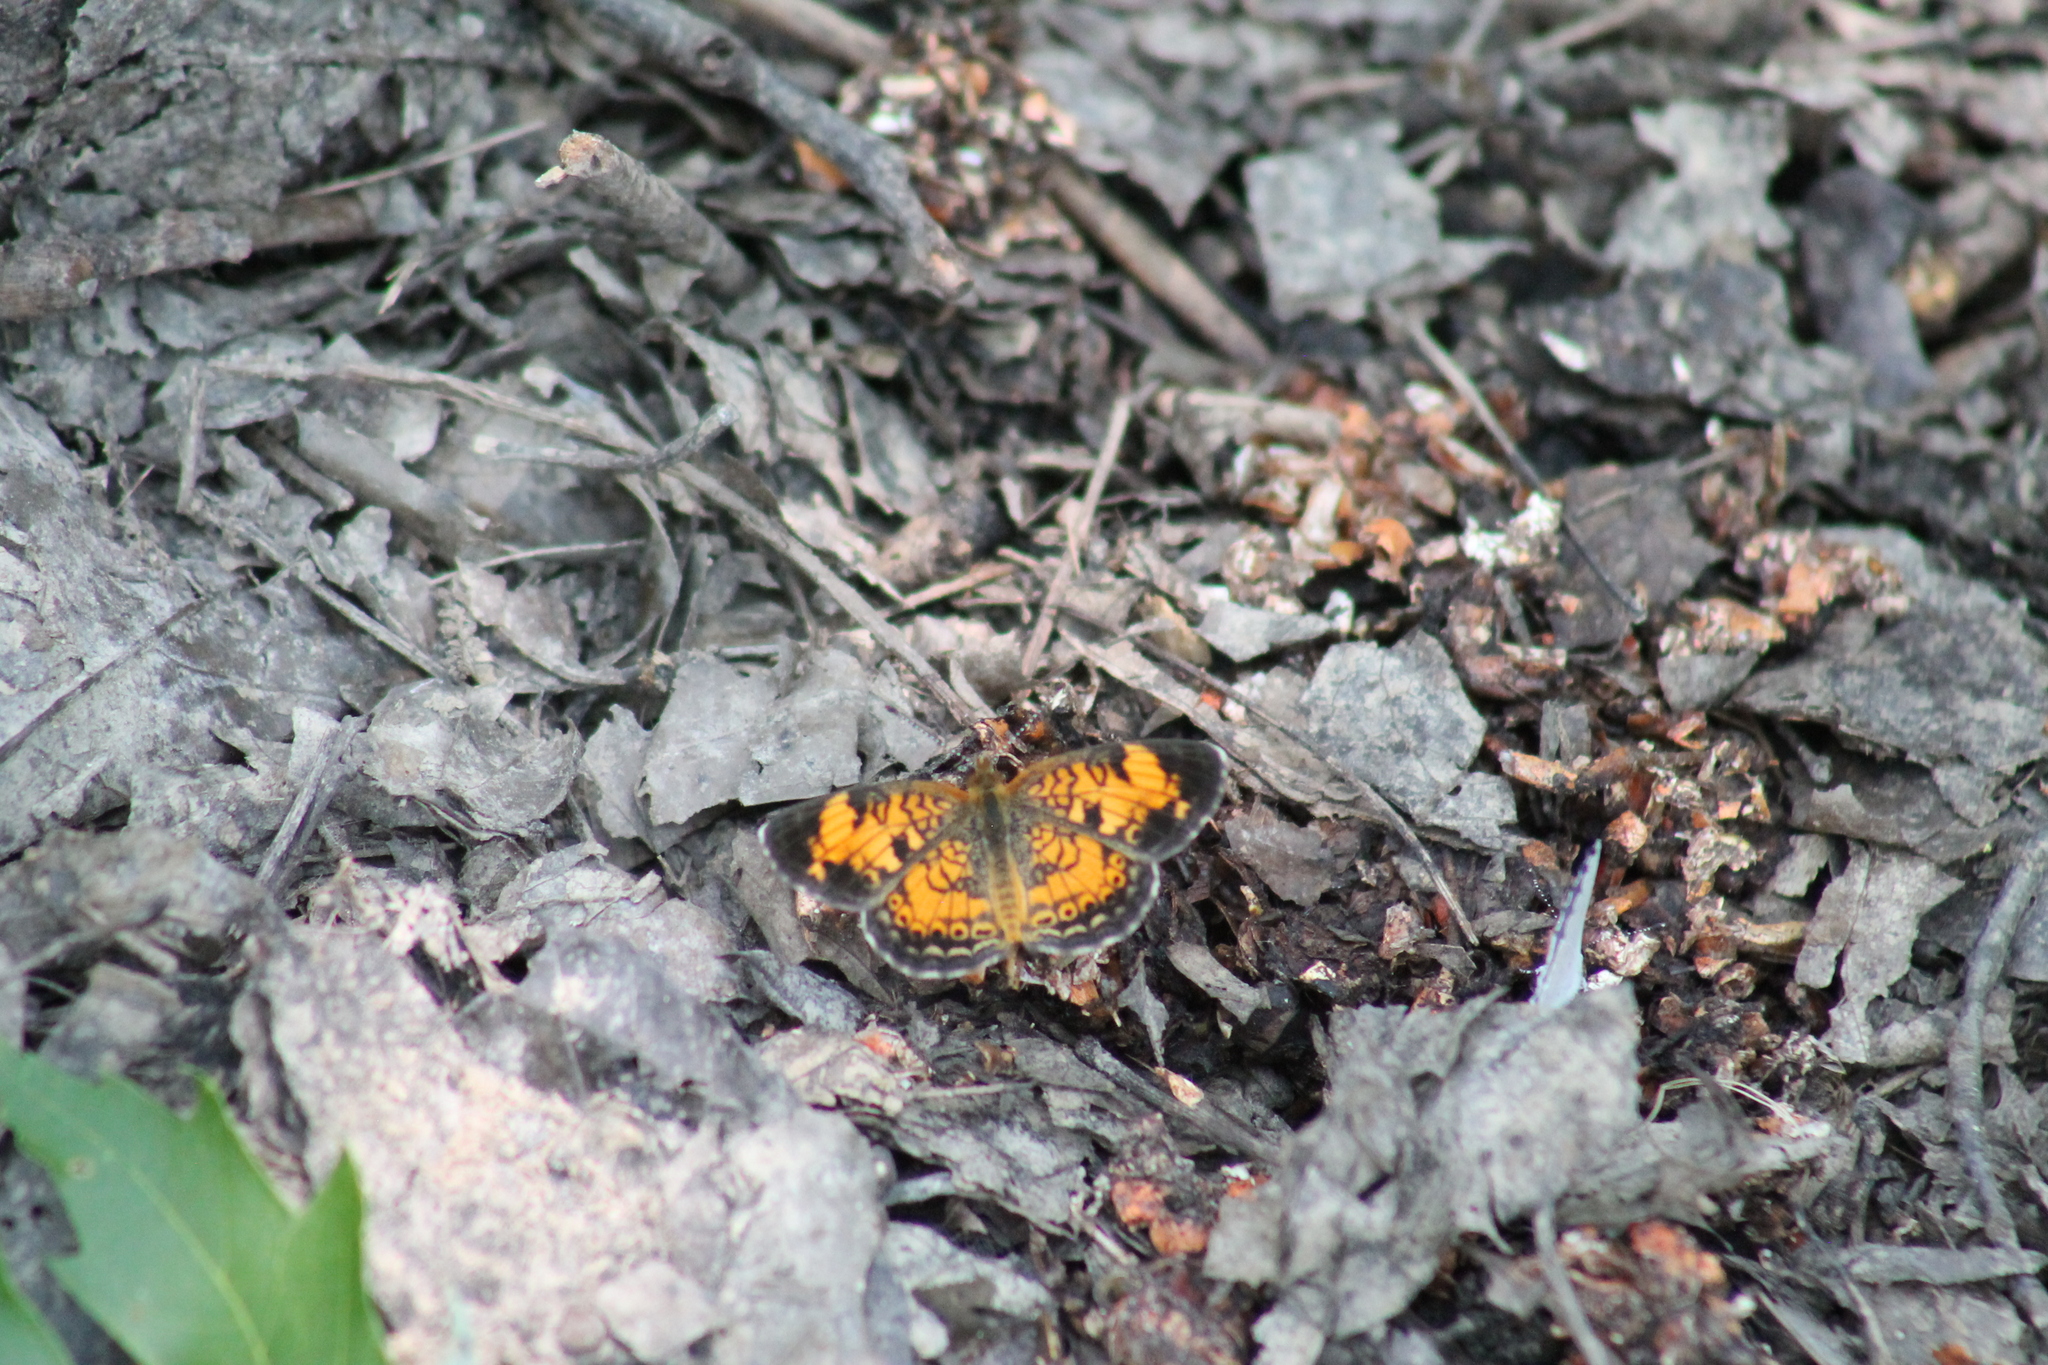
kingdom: Animalia
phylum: Arthropoda
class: Insecta
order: Lepidoptera
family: Nymphalidae
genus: Phyciodes
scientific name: Phyciodes tharos
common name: Pearl crescent
